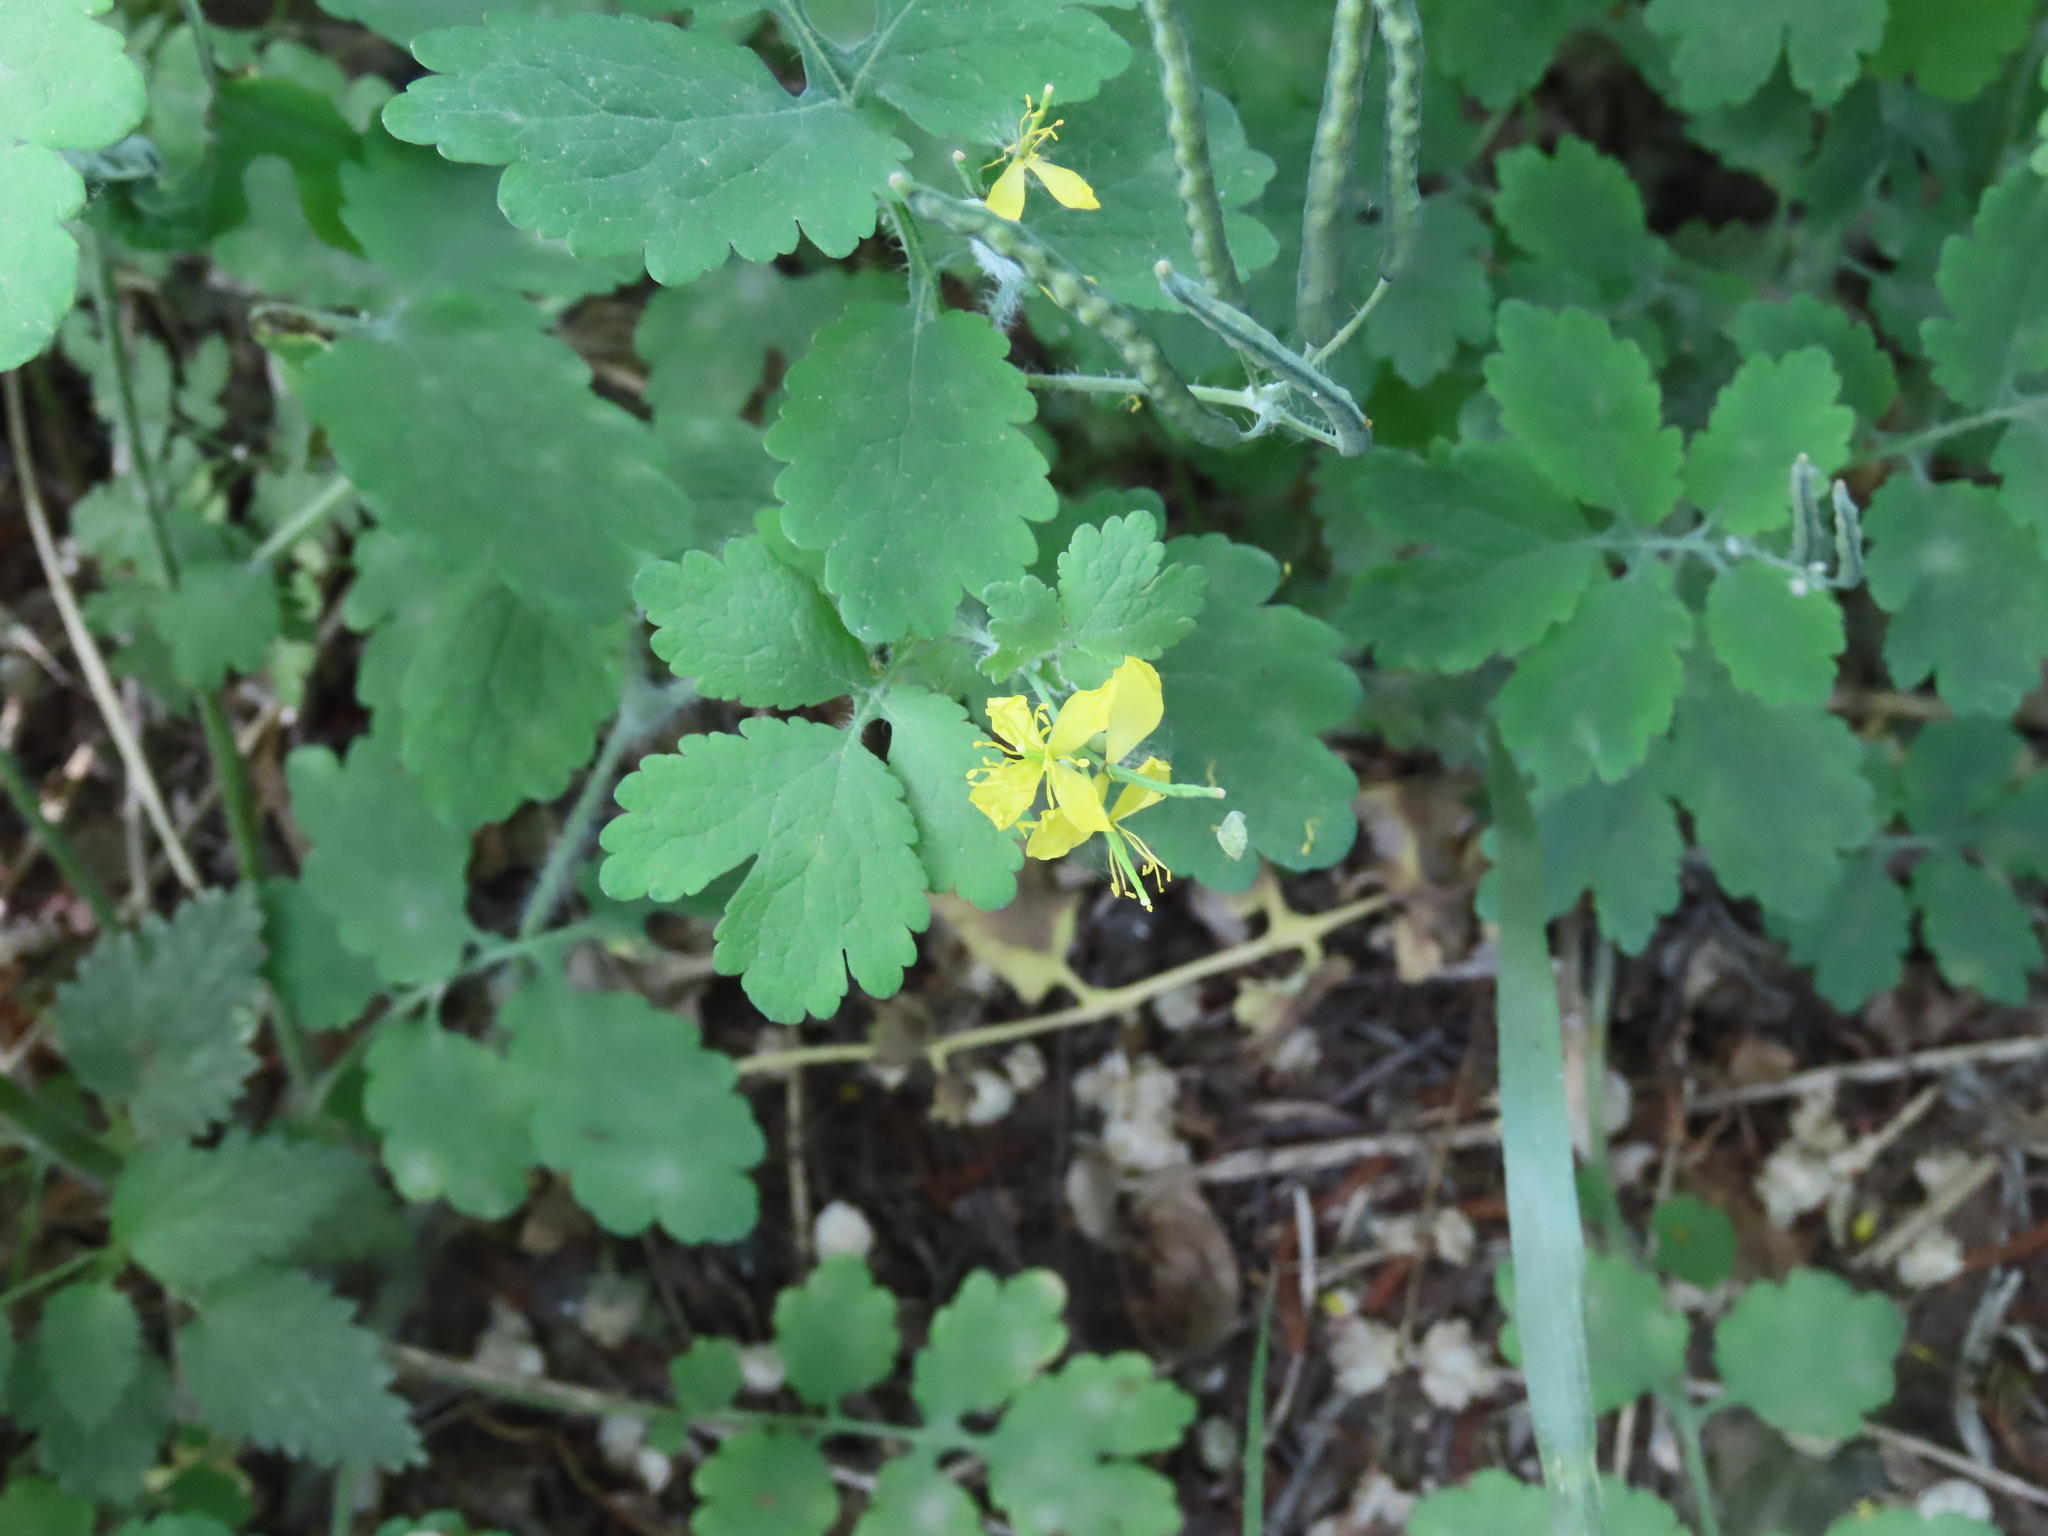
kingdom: Plantae
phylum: Tracheophyta
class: Magnoliopsida
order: Ranunculales
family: Papaveraceae
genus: Chelidonium
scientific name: Chelidonium majus
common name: Greater celandine
